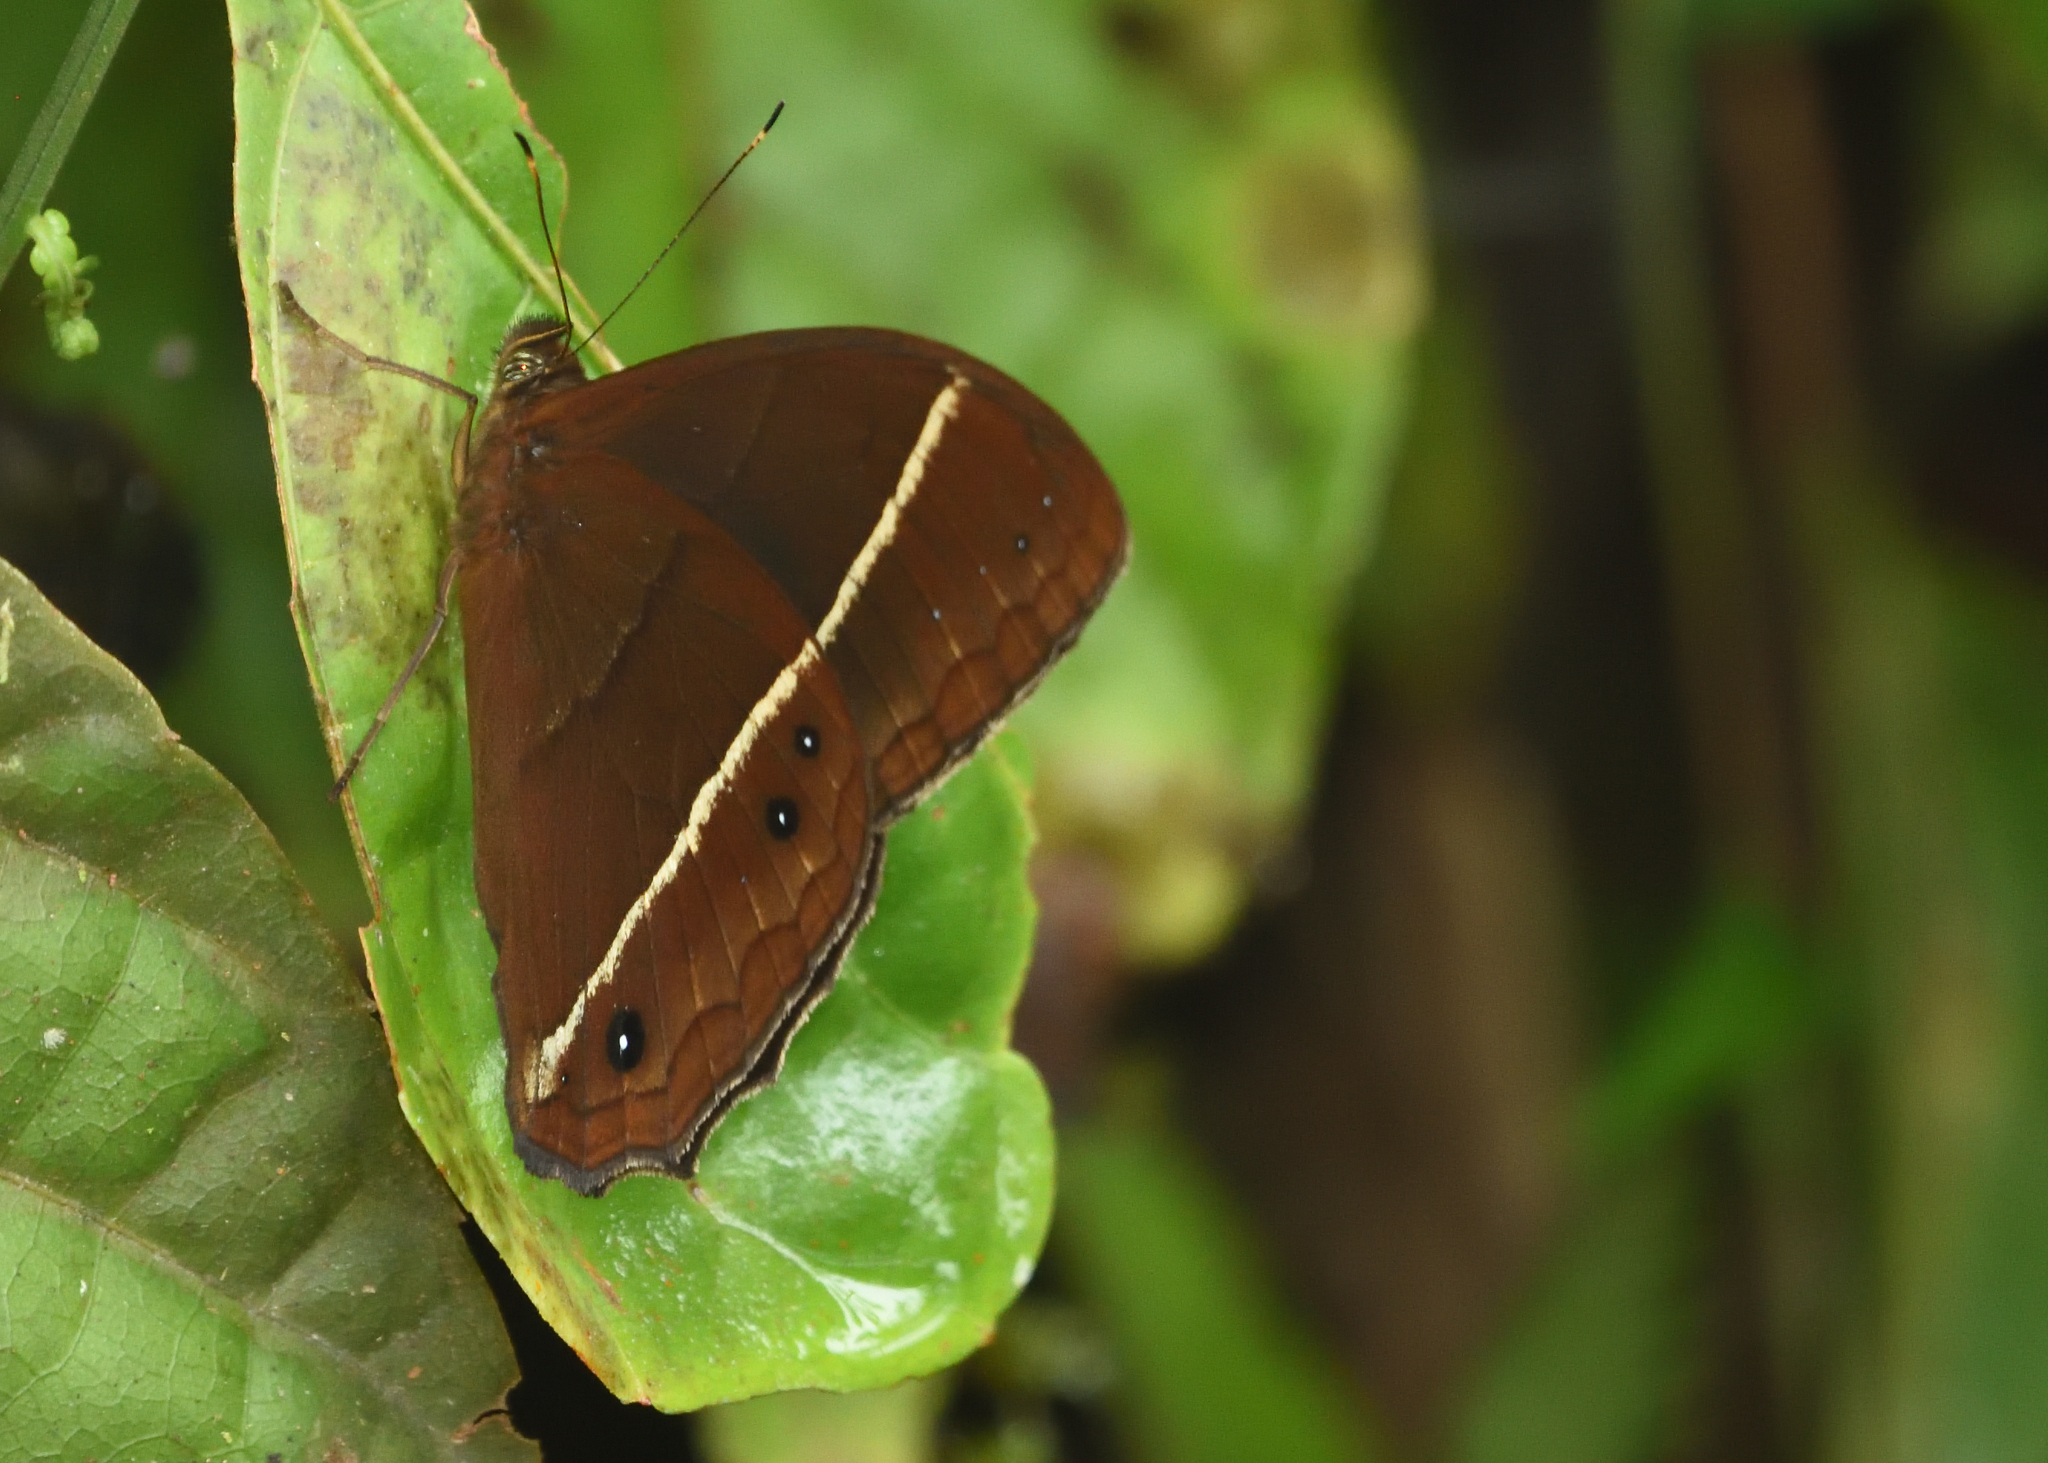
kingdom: Animalia
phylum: Arthropoda
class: Insecta
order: Lepidoptera
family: Nymphalidae
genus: Parataygetis
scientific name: Parataygetis lineata
